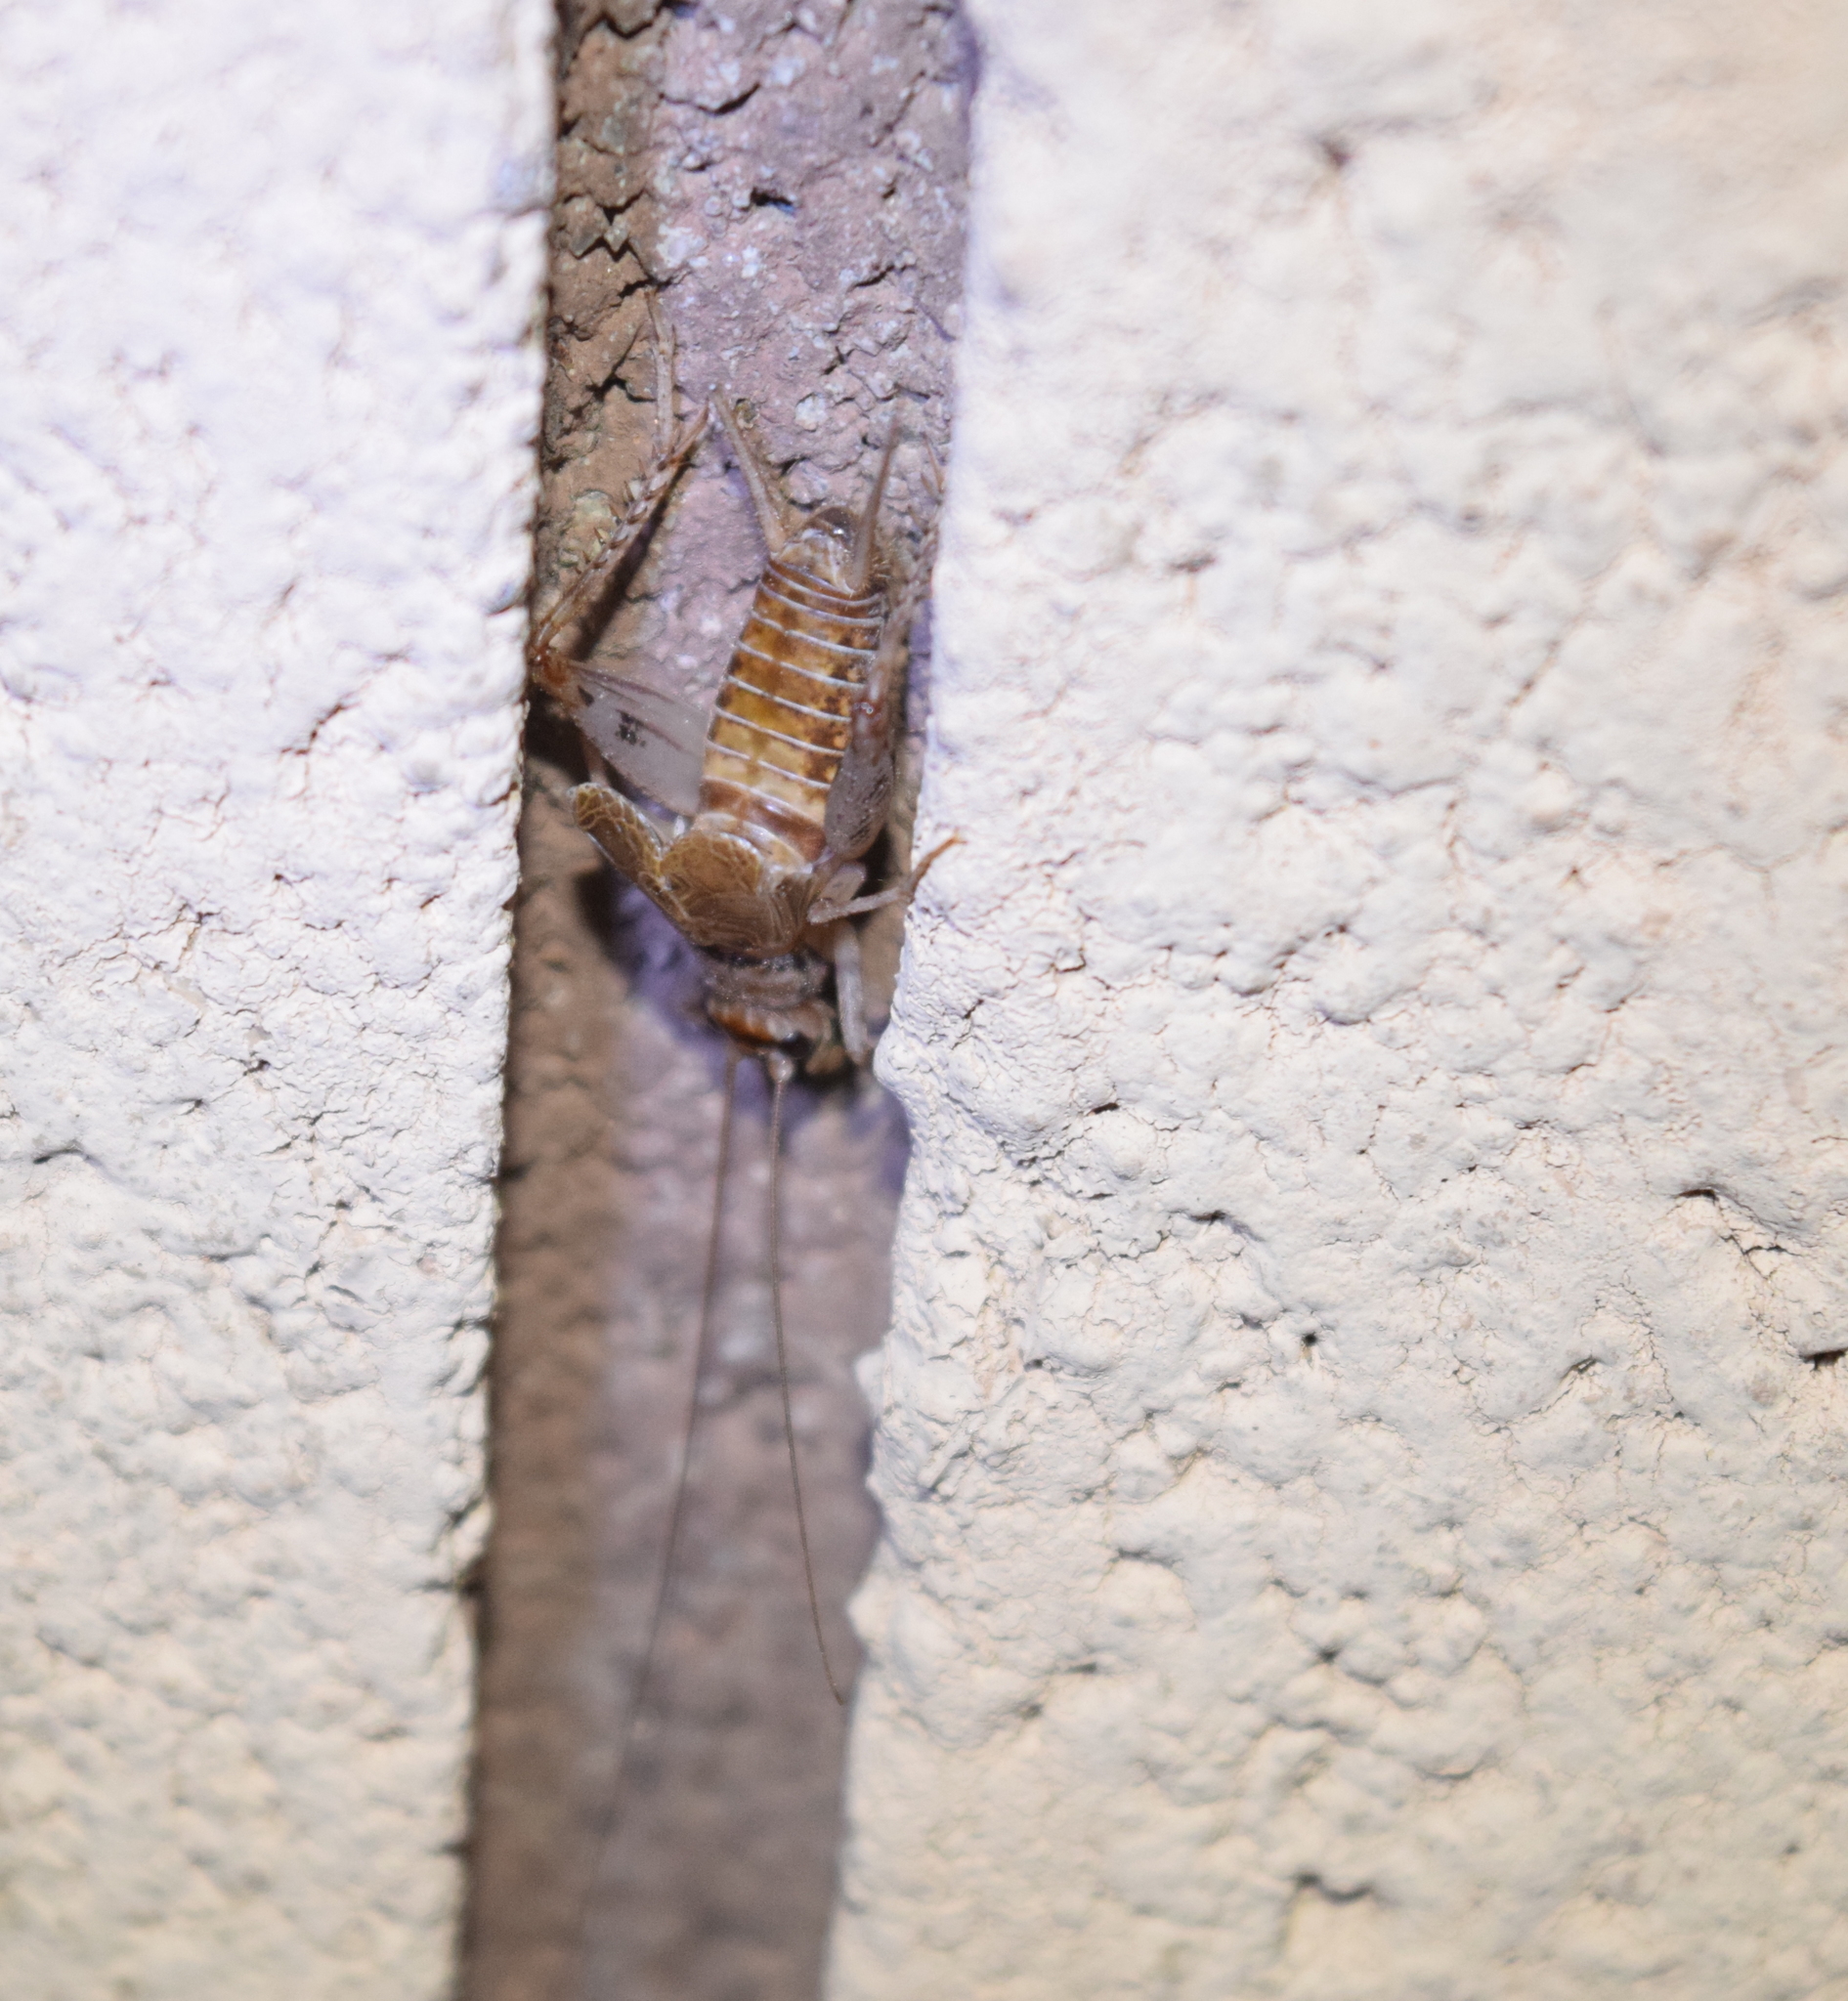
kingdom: Animalia
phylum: Arthropoda
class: Insecta
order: Orthoptera
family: Gryllidae
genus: Gryllodes
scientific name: Gryllodes sigillatus
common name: Tropical house cricket
